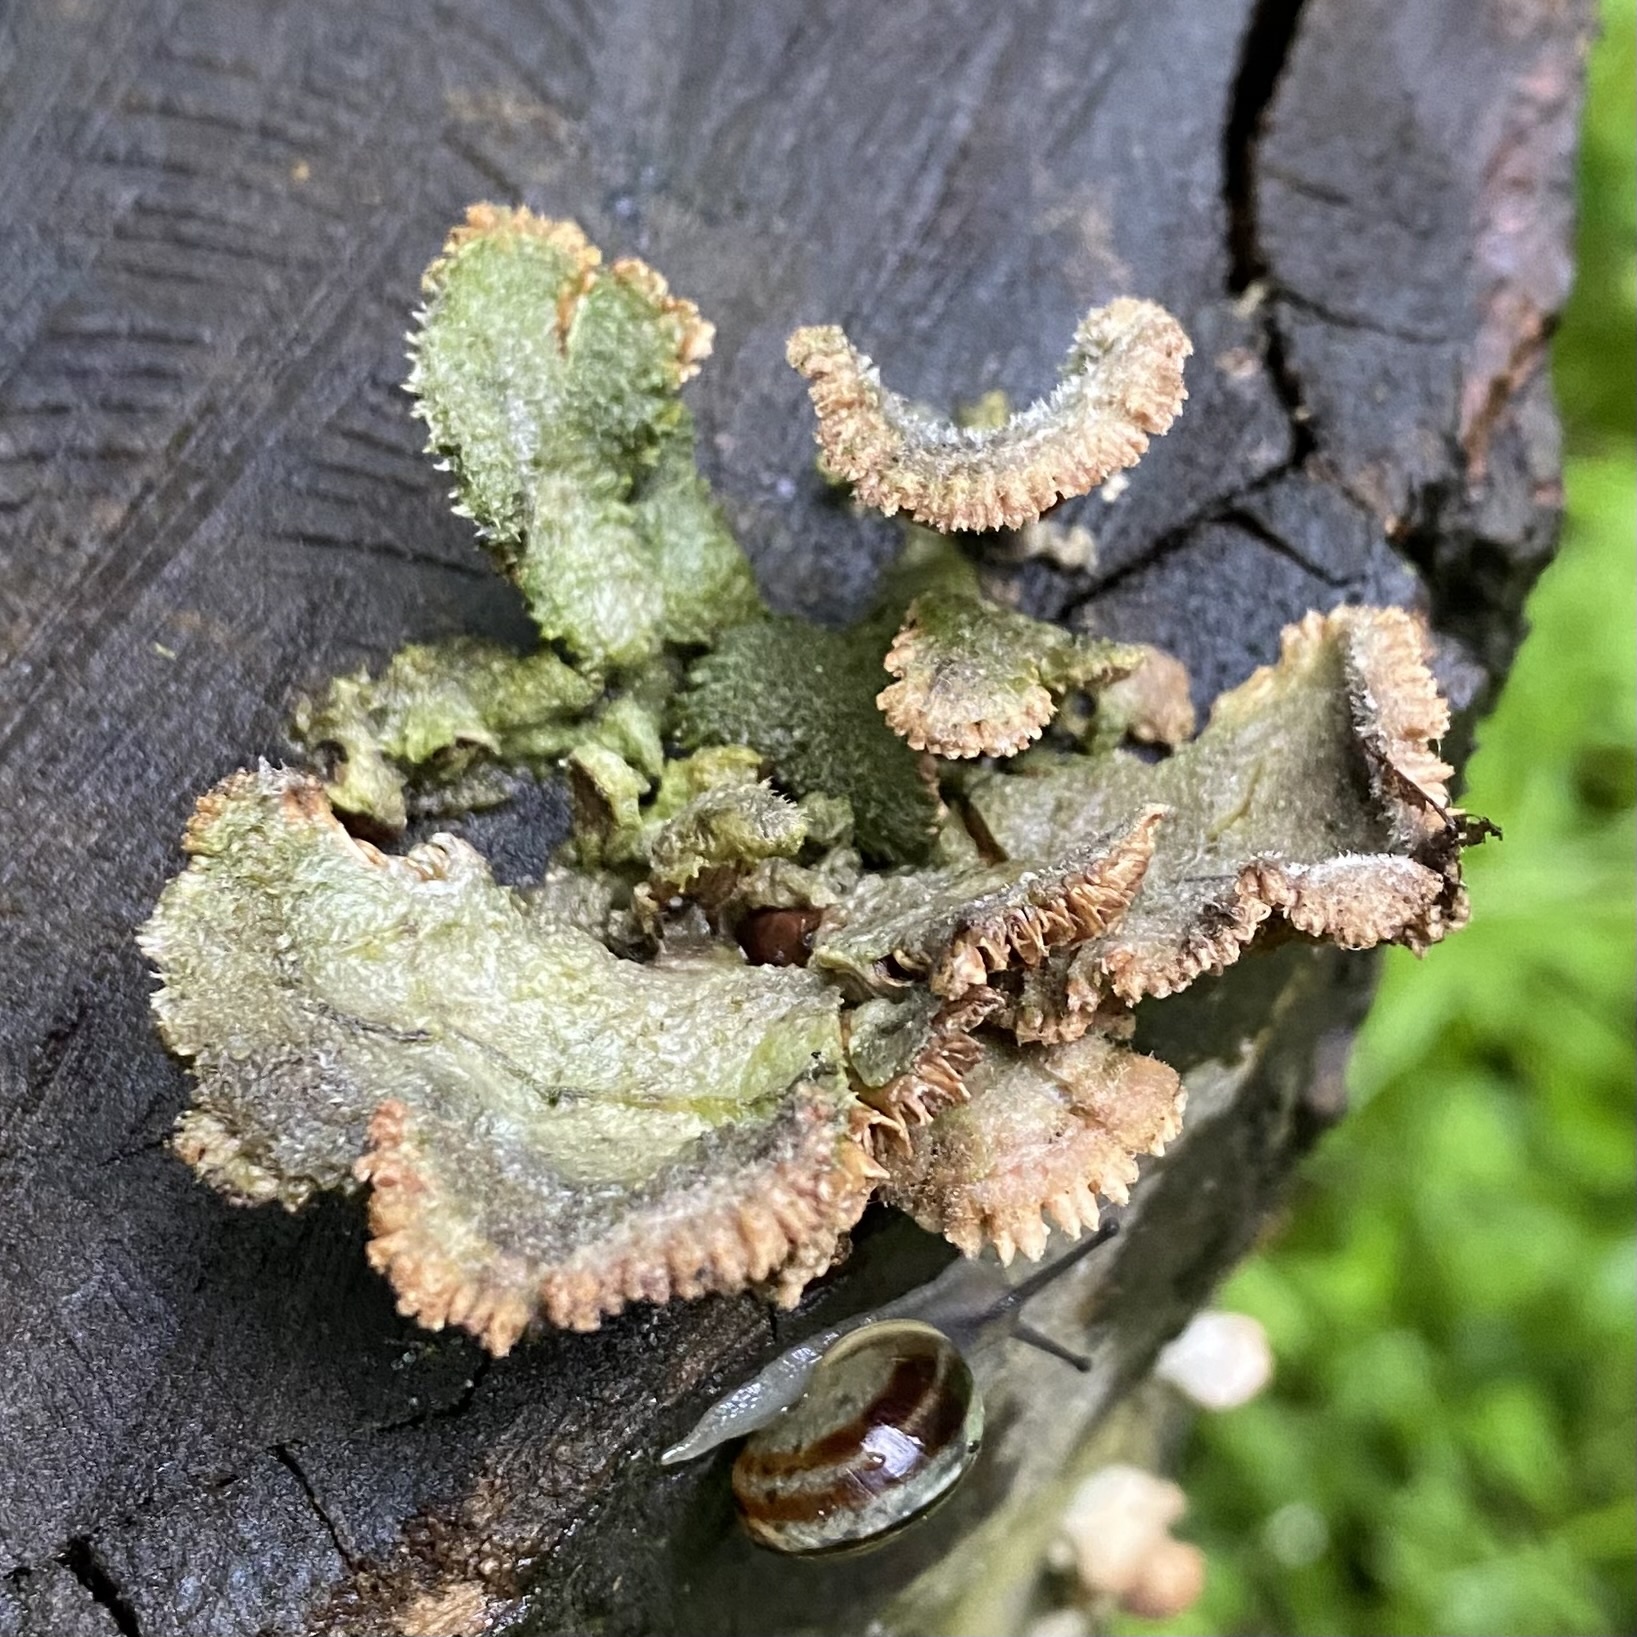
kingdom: Fungi
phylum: Basidiomycota
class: Agaricomycetes
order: Agaricales
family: Schizophyllaceae
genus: Schizophyllum
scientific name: Schizophyllum commune
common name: Common porecrust
